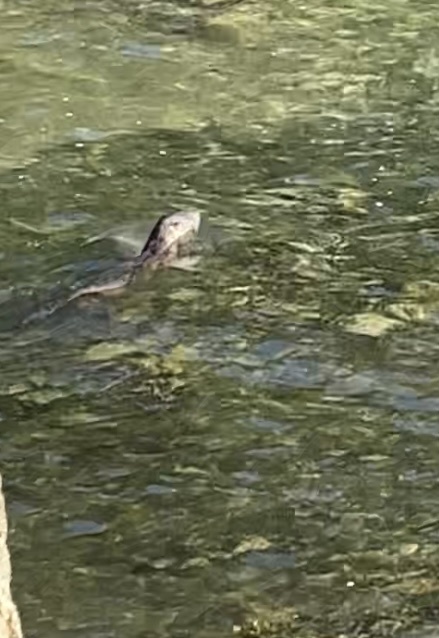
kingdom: Animalia
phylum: Chordata
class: Mammalia
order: Carnivora
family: Mustelidae
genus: Lontra
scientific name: Lontra canadensis
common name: North american river otter
